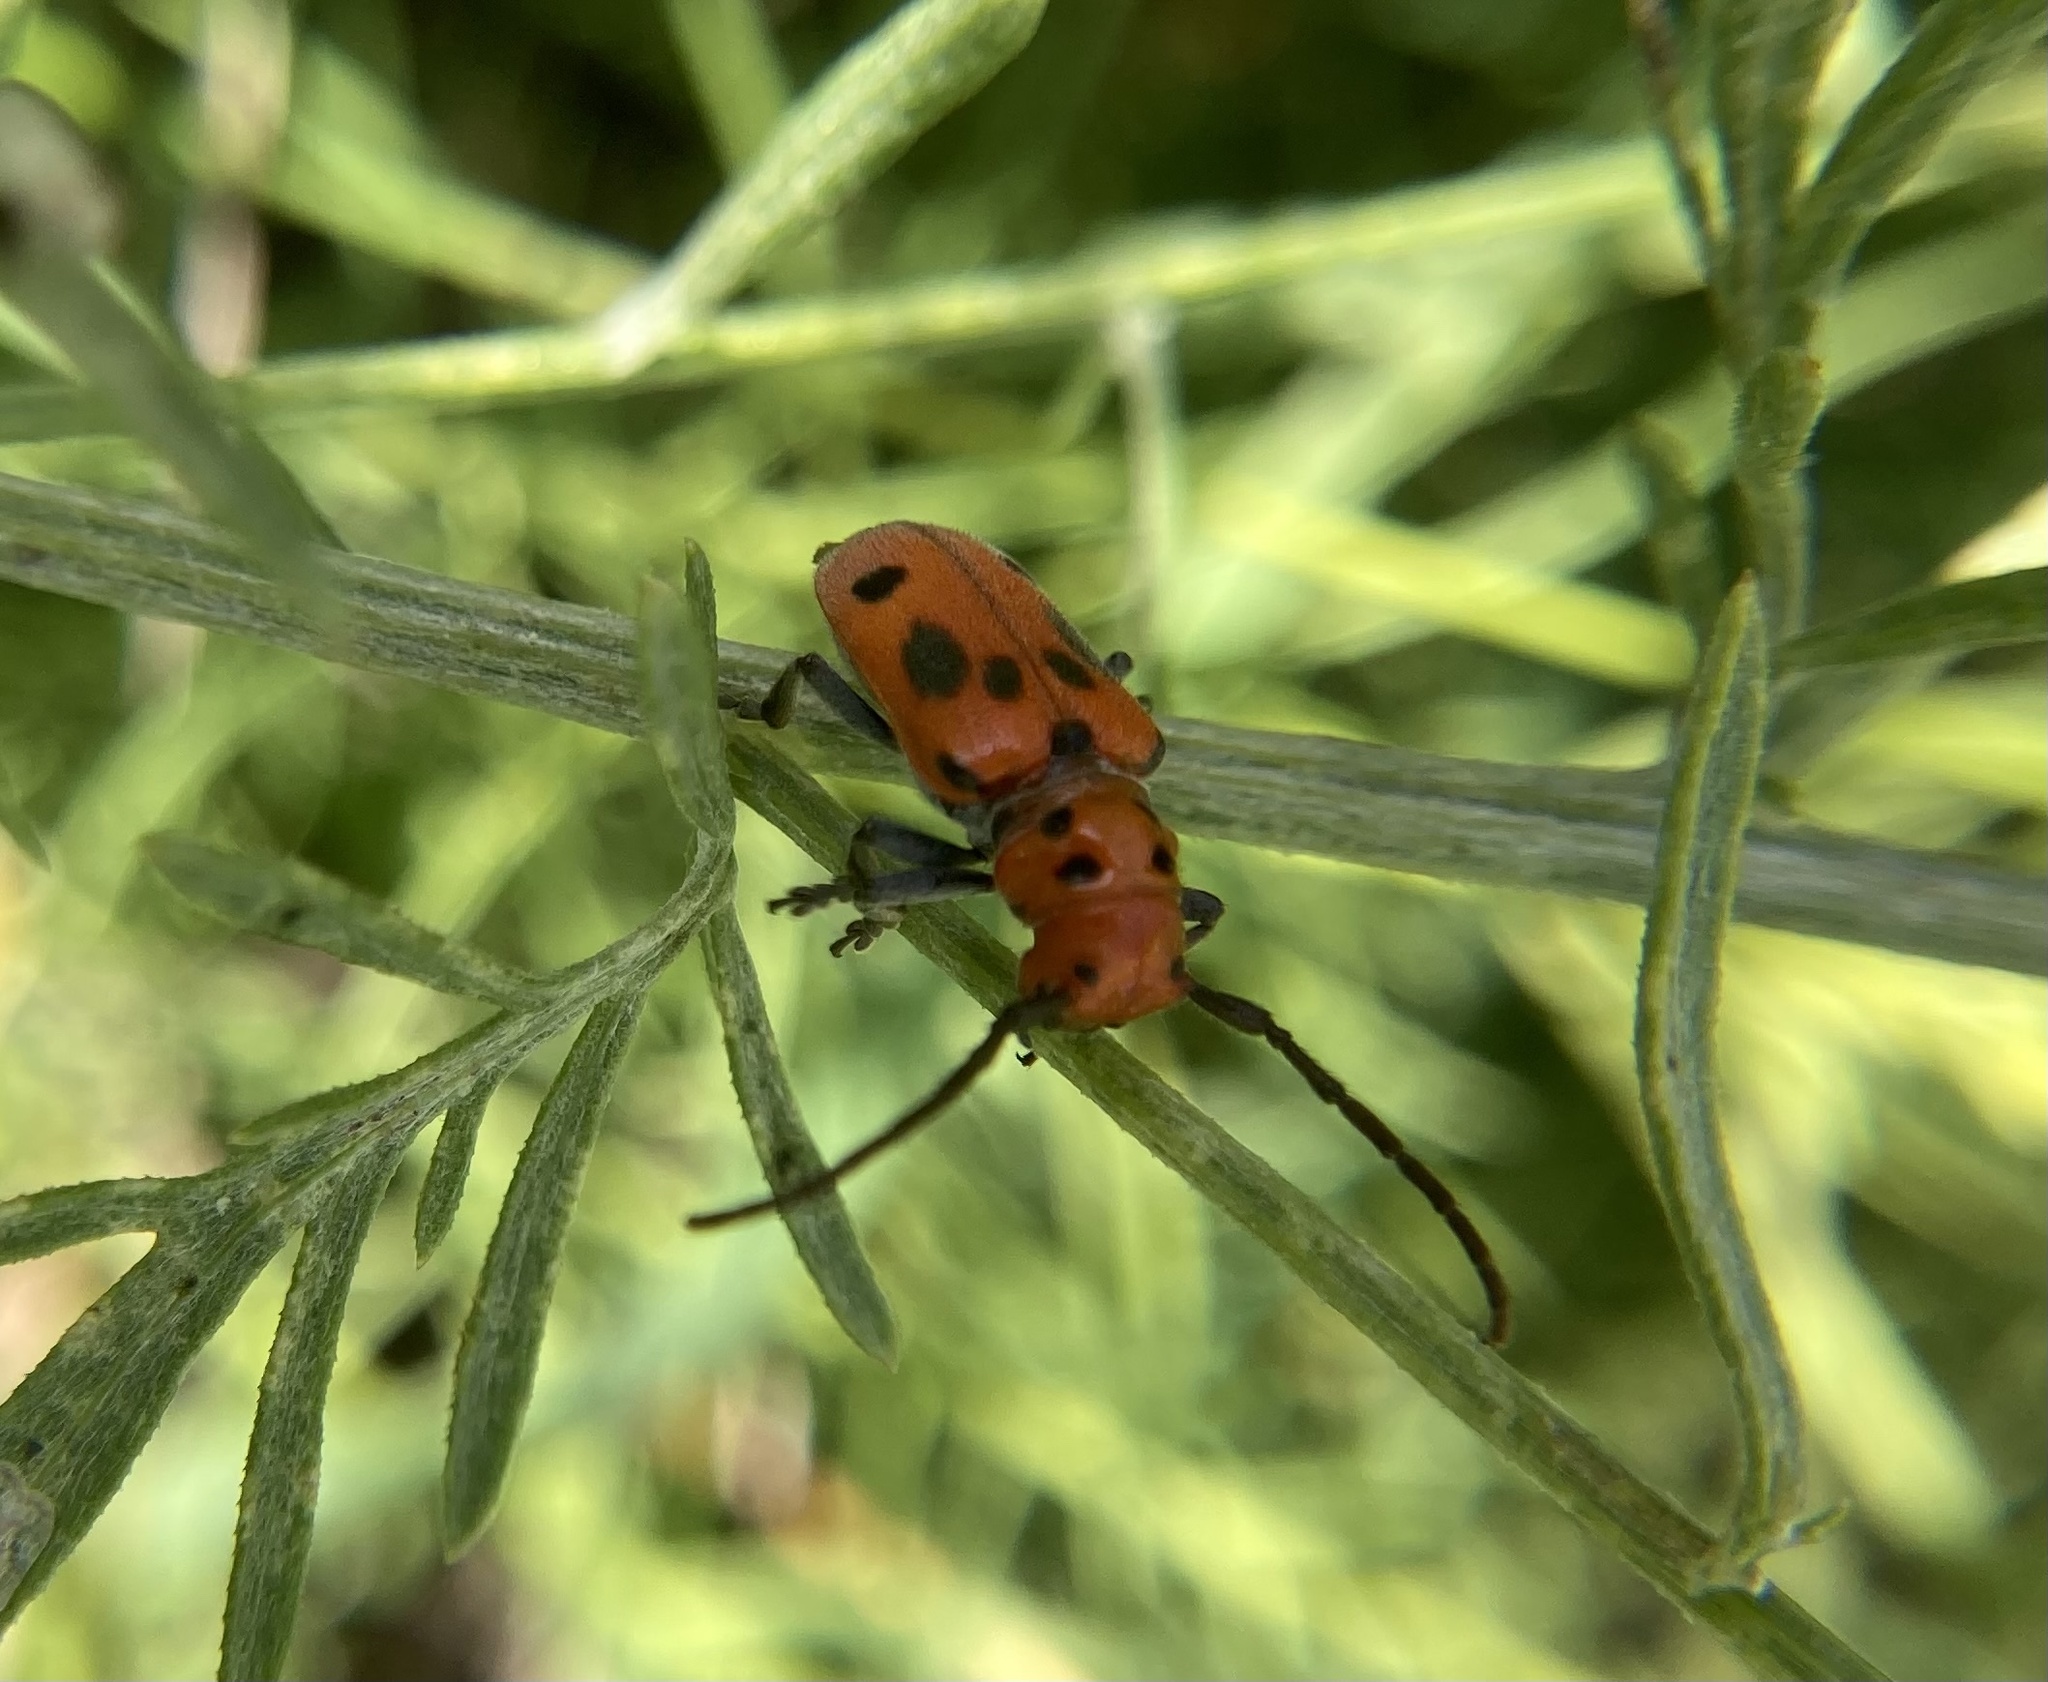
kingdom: Animalia
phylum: Arthropoda
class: Insecta
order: Coleoptera
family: Cerambycidae
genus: Tetraopes
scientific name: Tetraopes tetrophthalmus
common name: Red milkweed beetle
